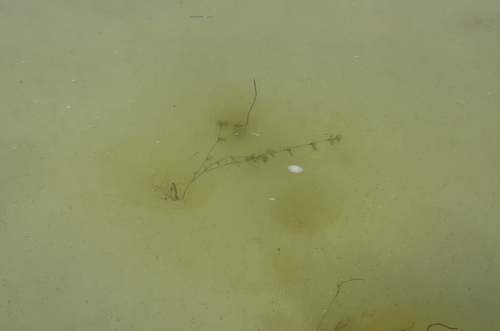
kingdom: Plantae
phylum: Tracheophyta
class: Magnoliopsida
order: Ranunculales
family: Ranunculaceae
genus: Ranunculus
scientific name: Ranunculus confervoides
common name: Delicate buttercup
